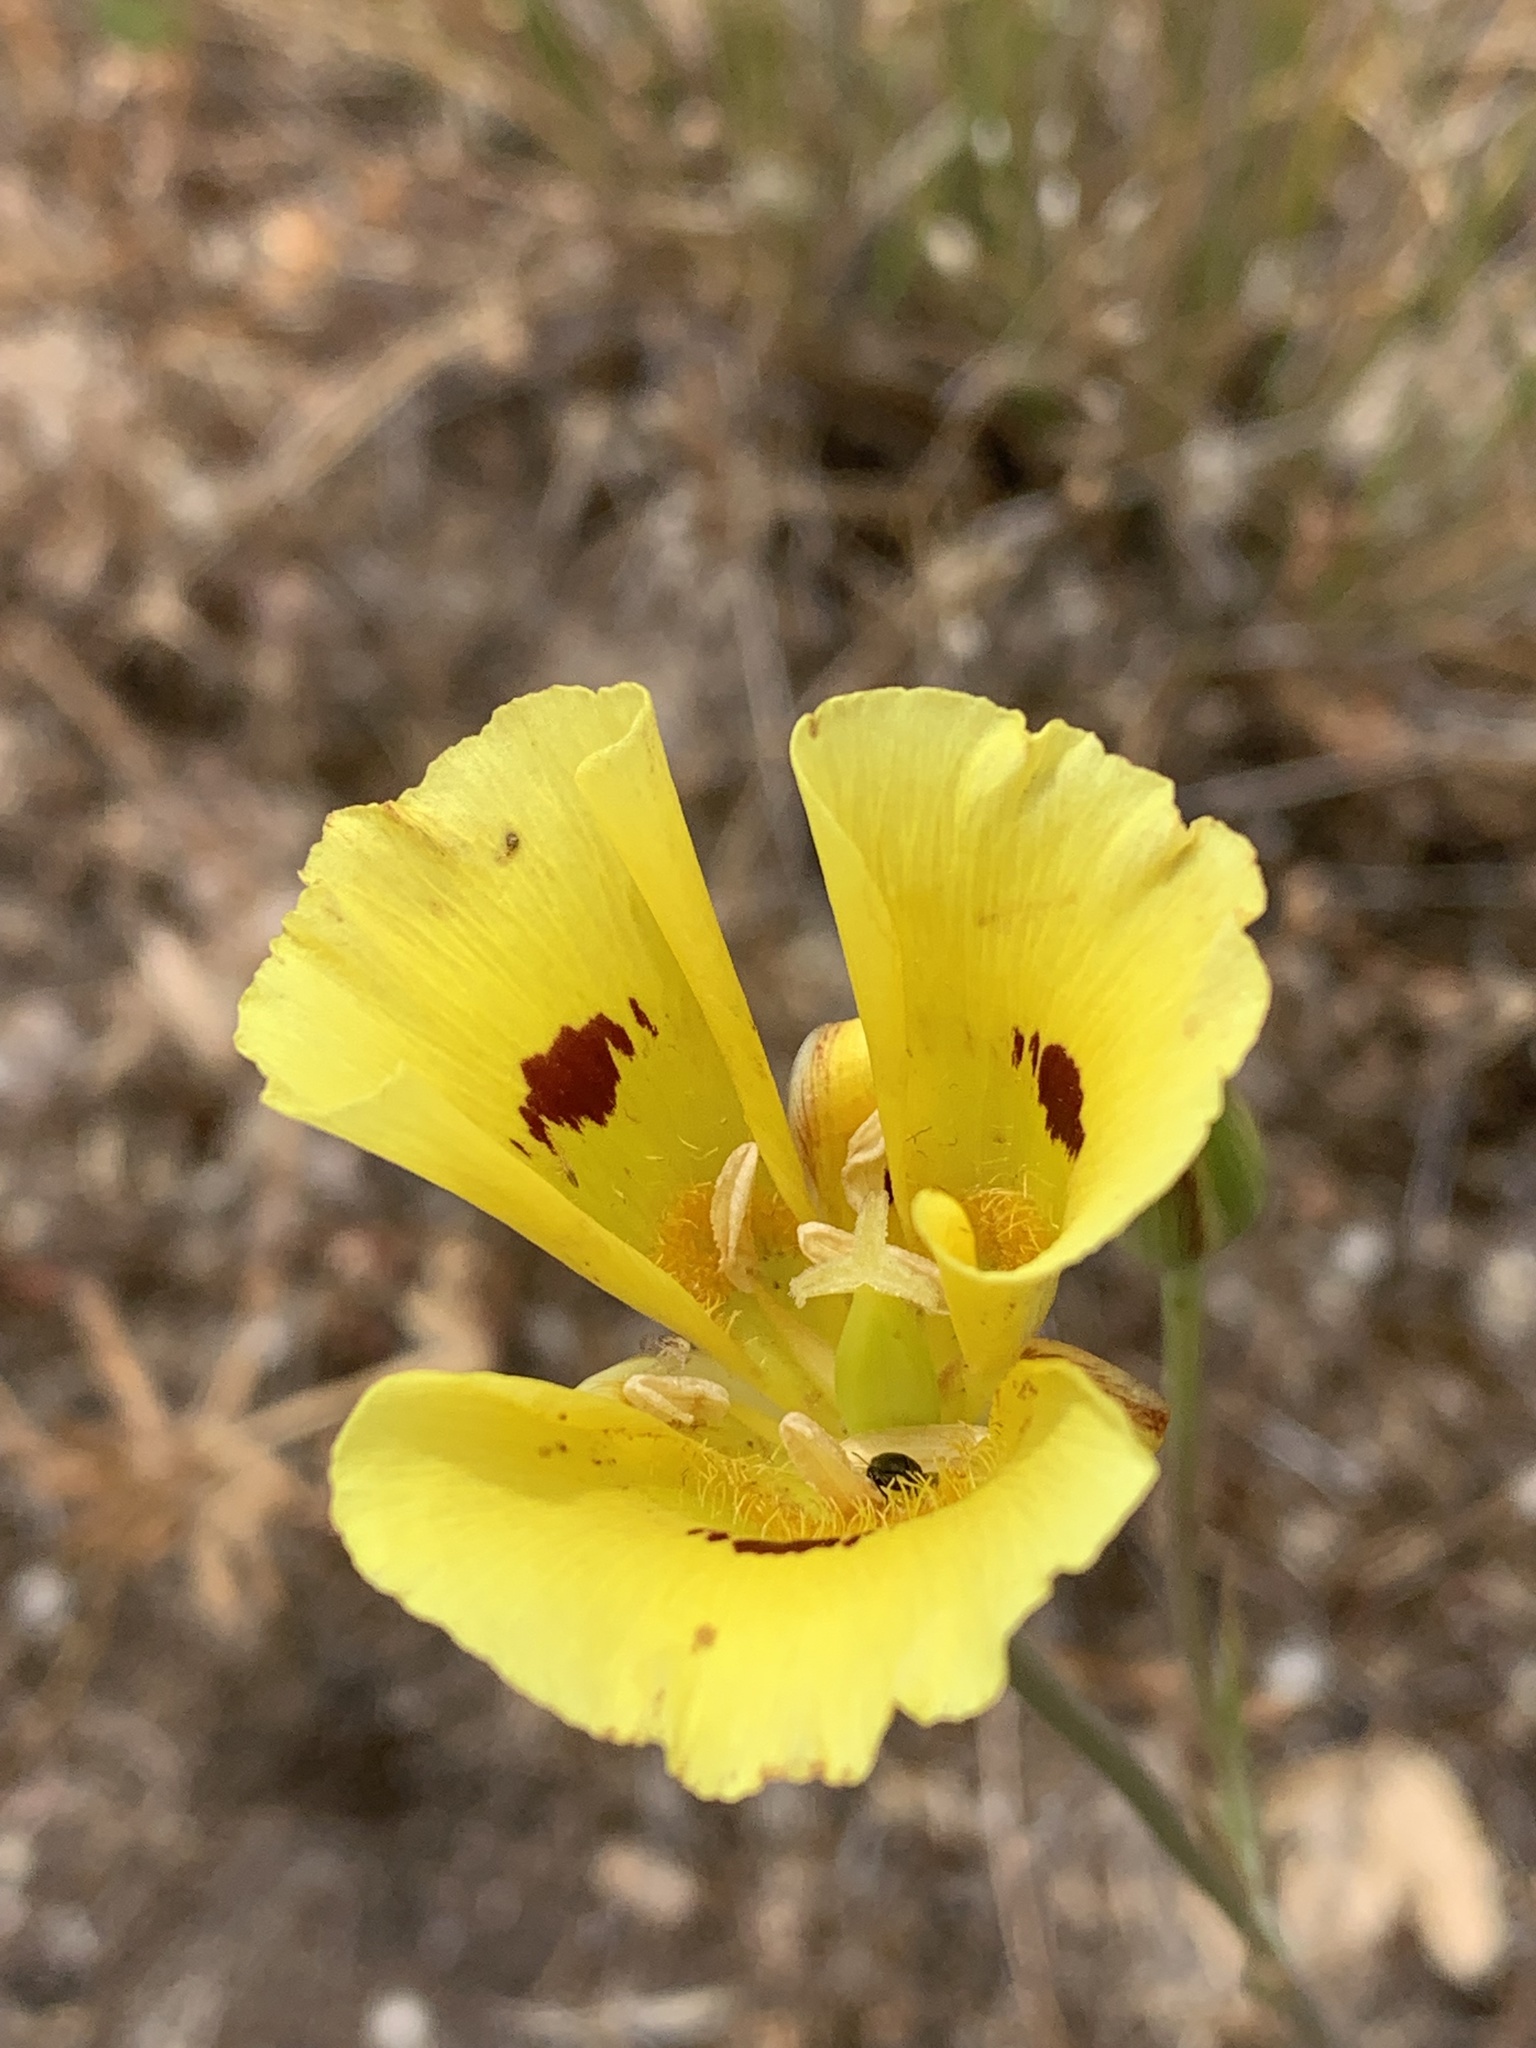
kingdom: Plantae
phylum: Tracheophyta
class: Liliopsida
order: Liliales
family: Liliaceae
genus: Calochortus
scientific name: Calochortus luteus
